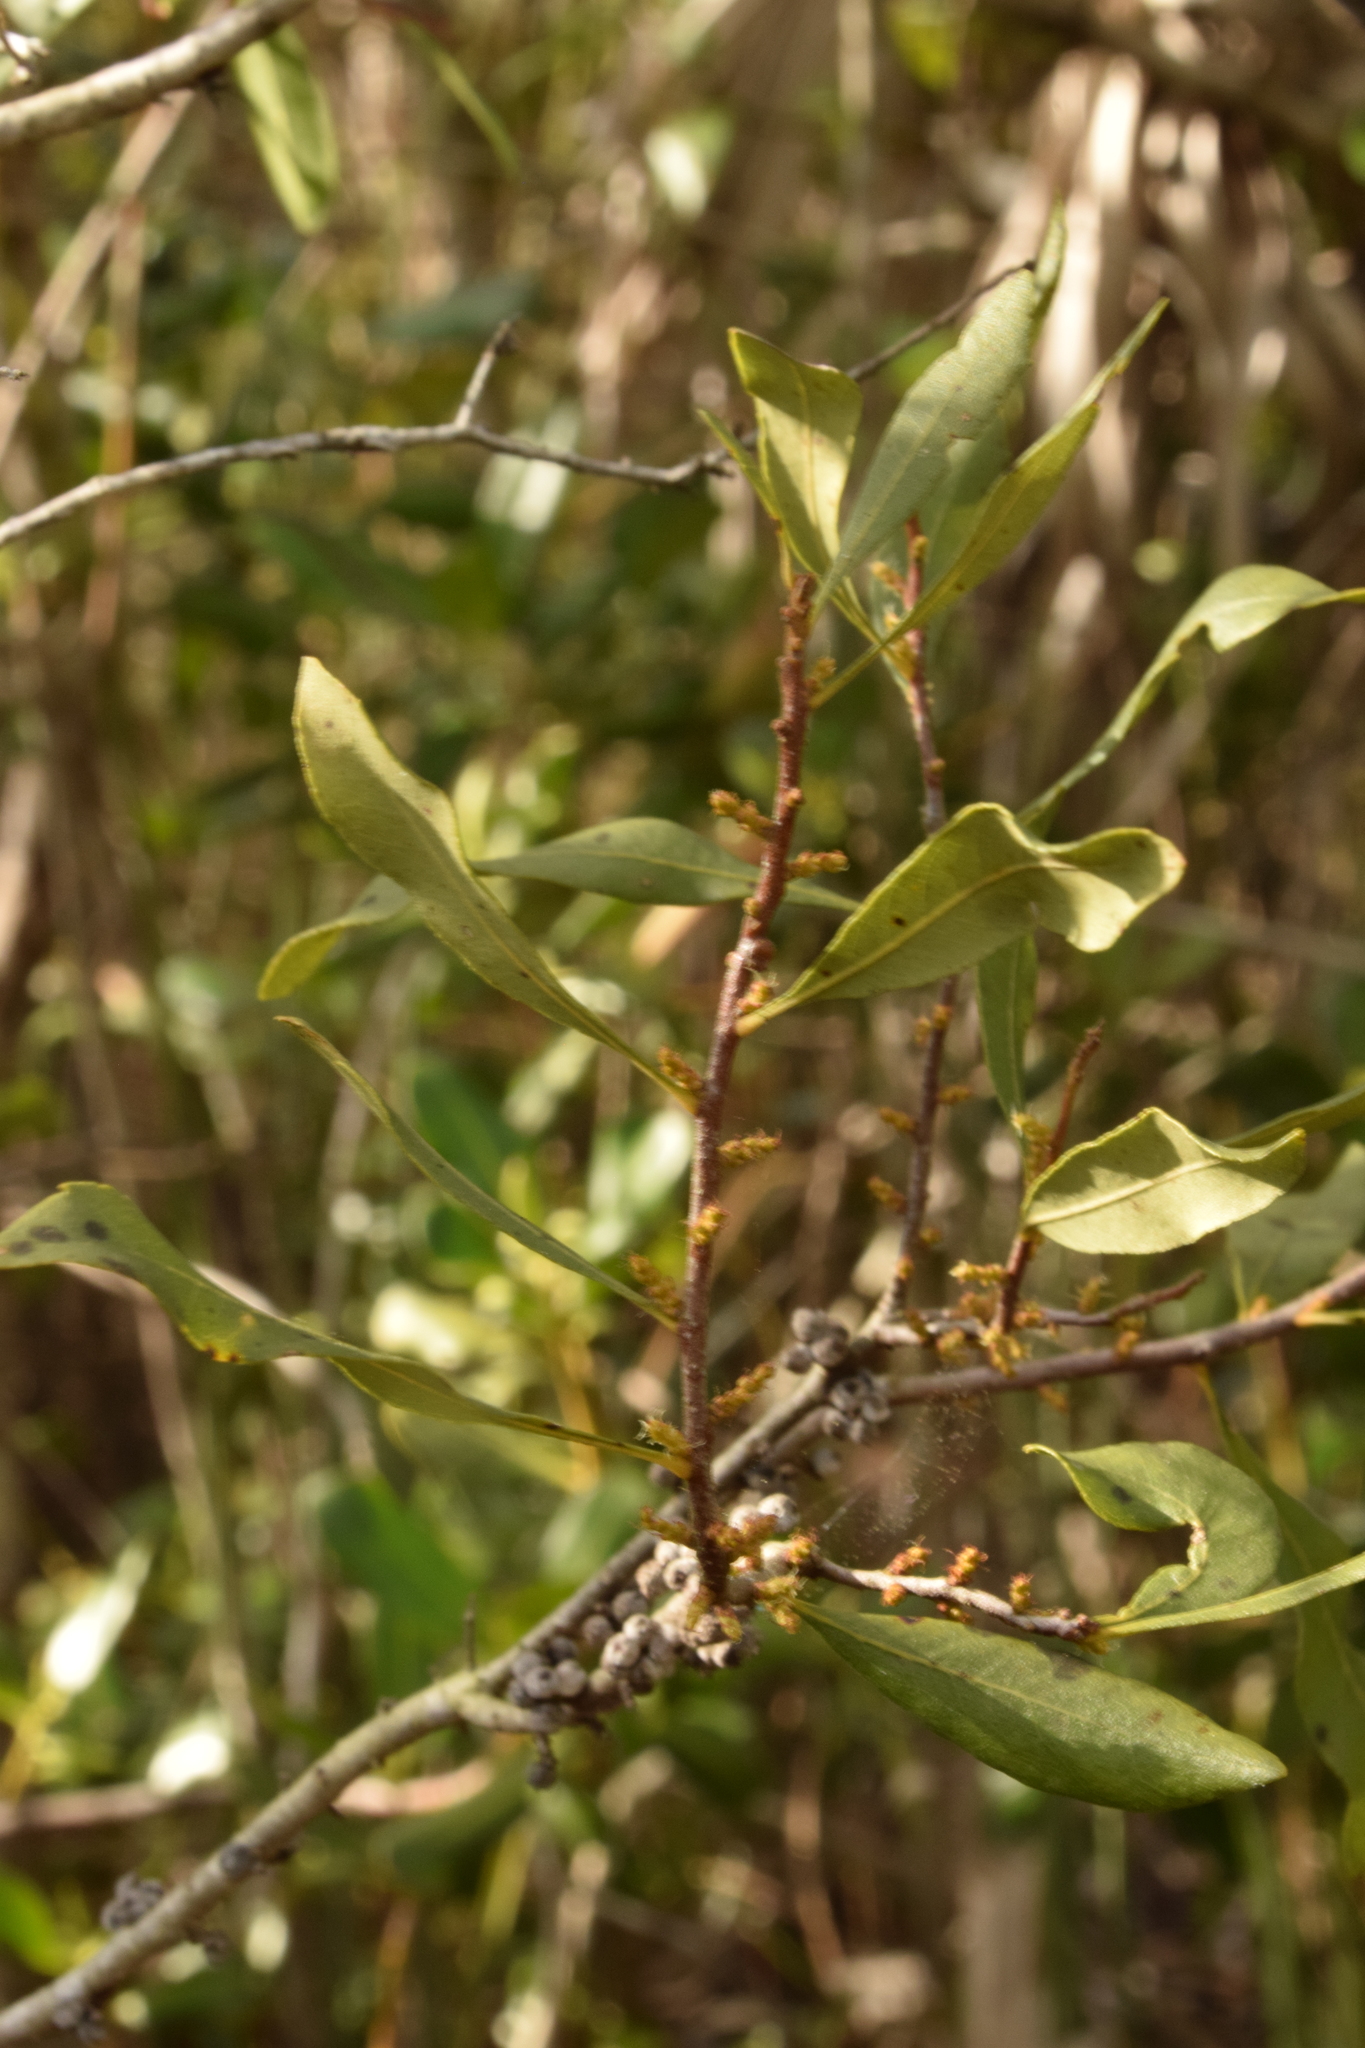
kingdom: Plantae
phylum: Tracheophyta
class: Magnoliopsida
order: Fagales
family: Myricaceae
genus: Morella
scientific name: Morella cerifera
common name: Wax myrtle
